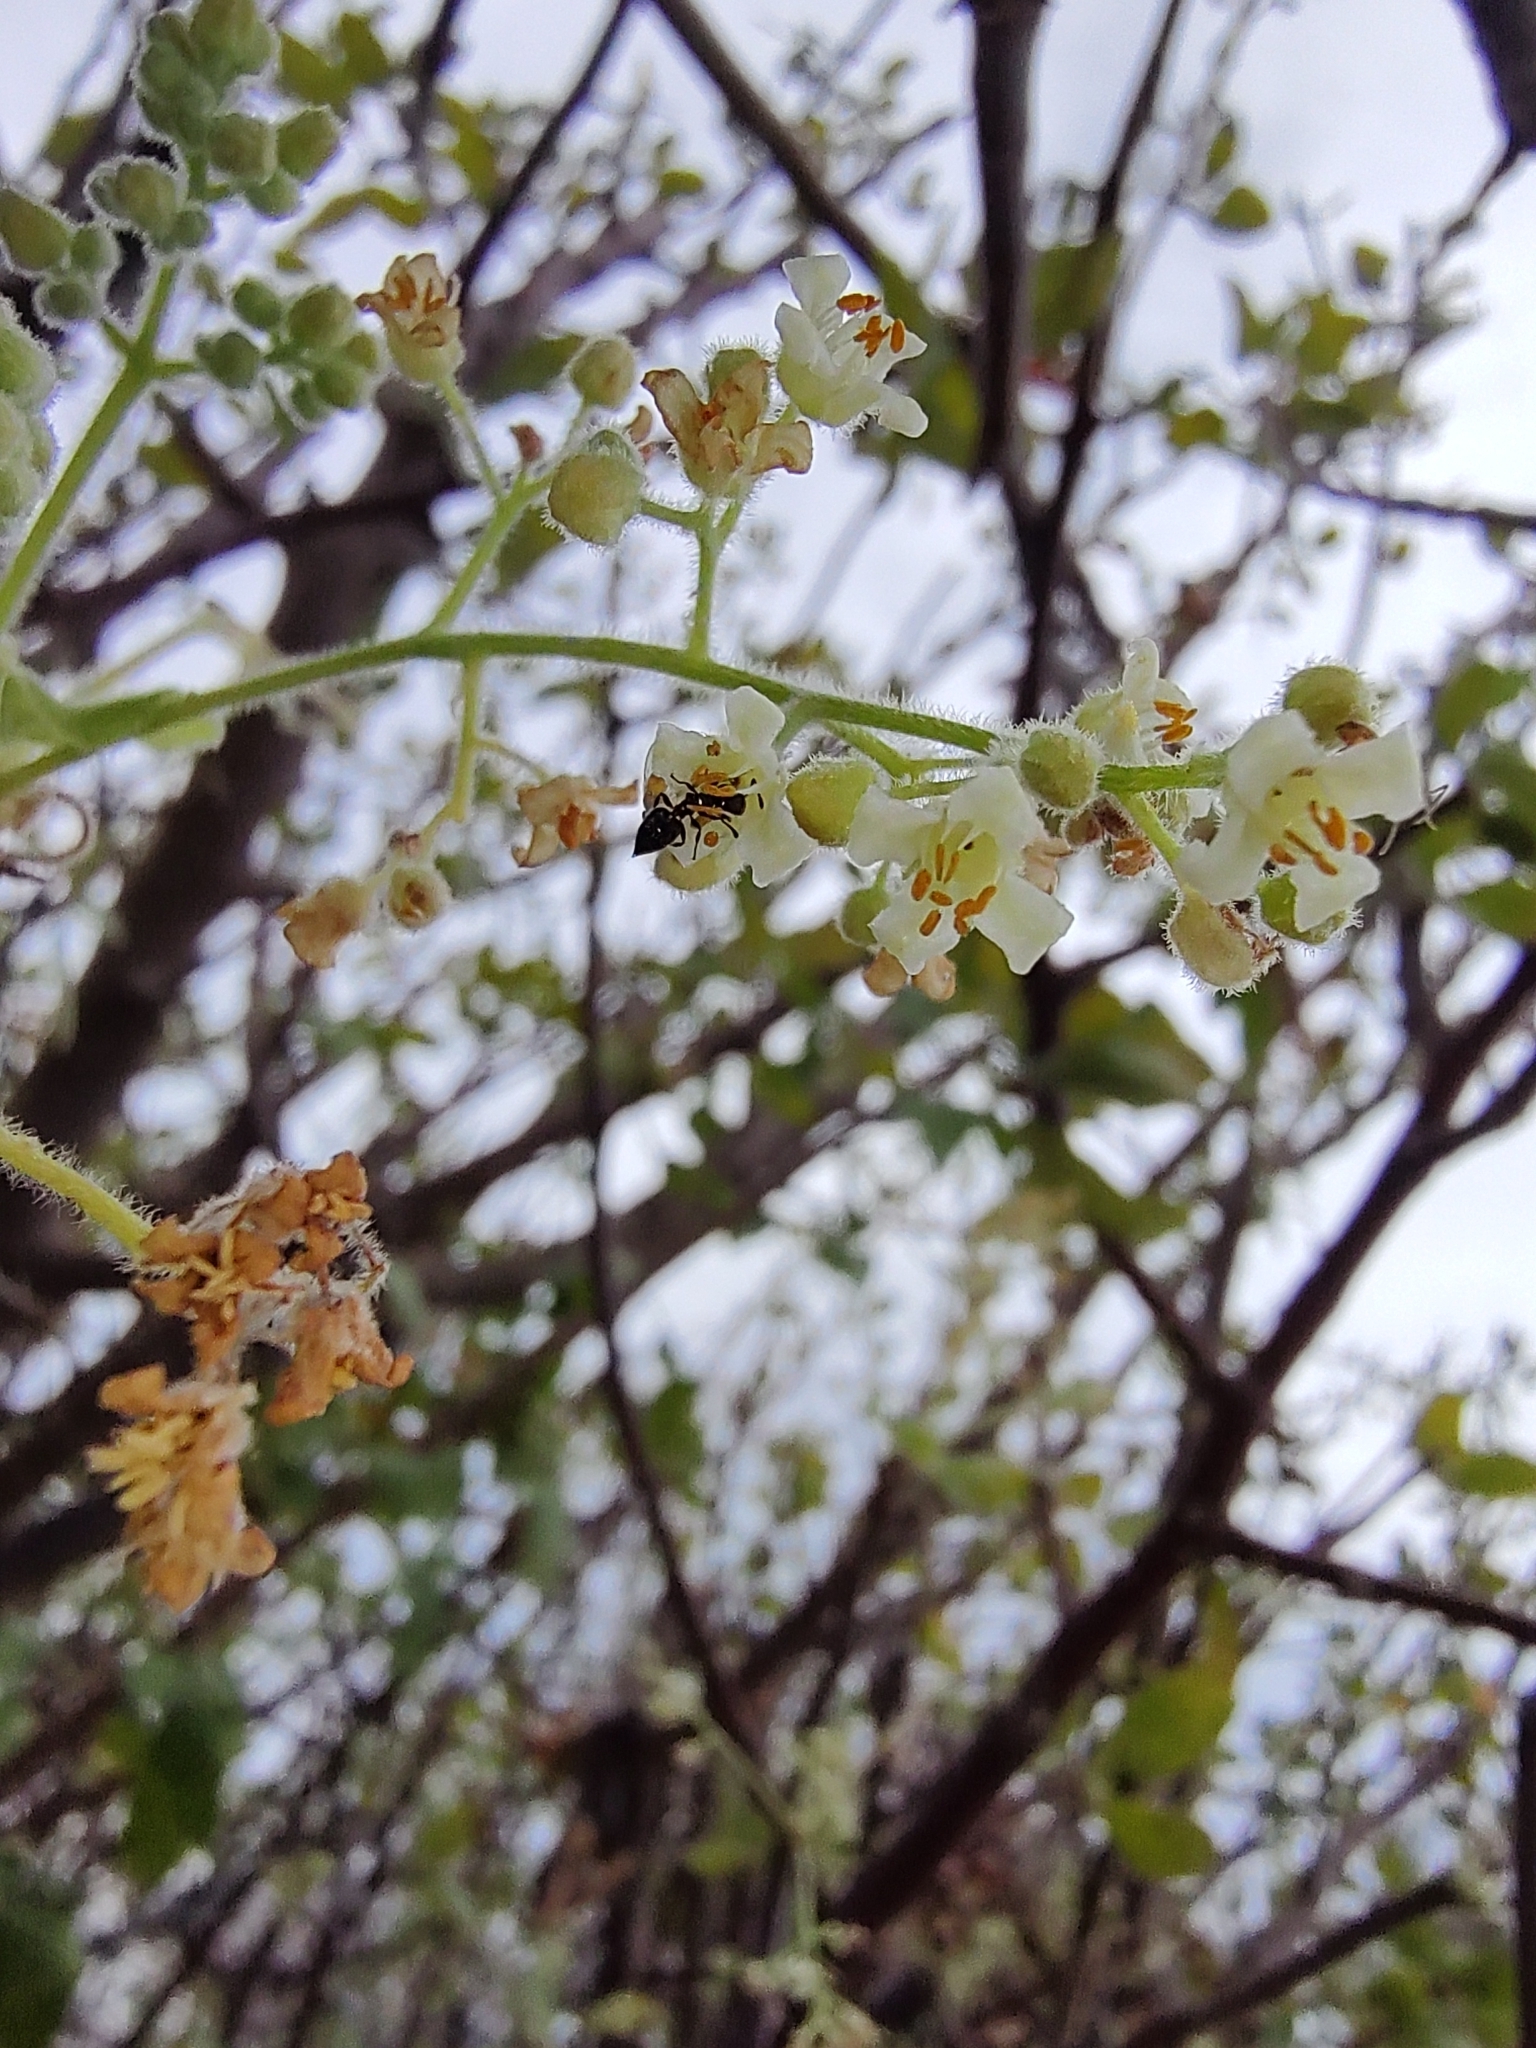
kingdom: Plantae
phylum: Tracheophyta
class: Magnoliopsida
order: Sapindales
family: Burseraceae
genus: Bursera
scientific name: Bursera epinnata
